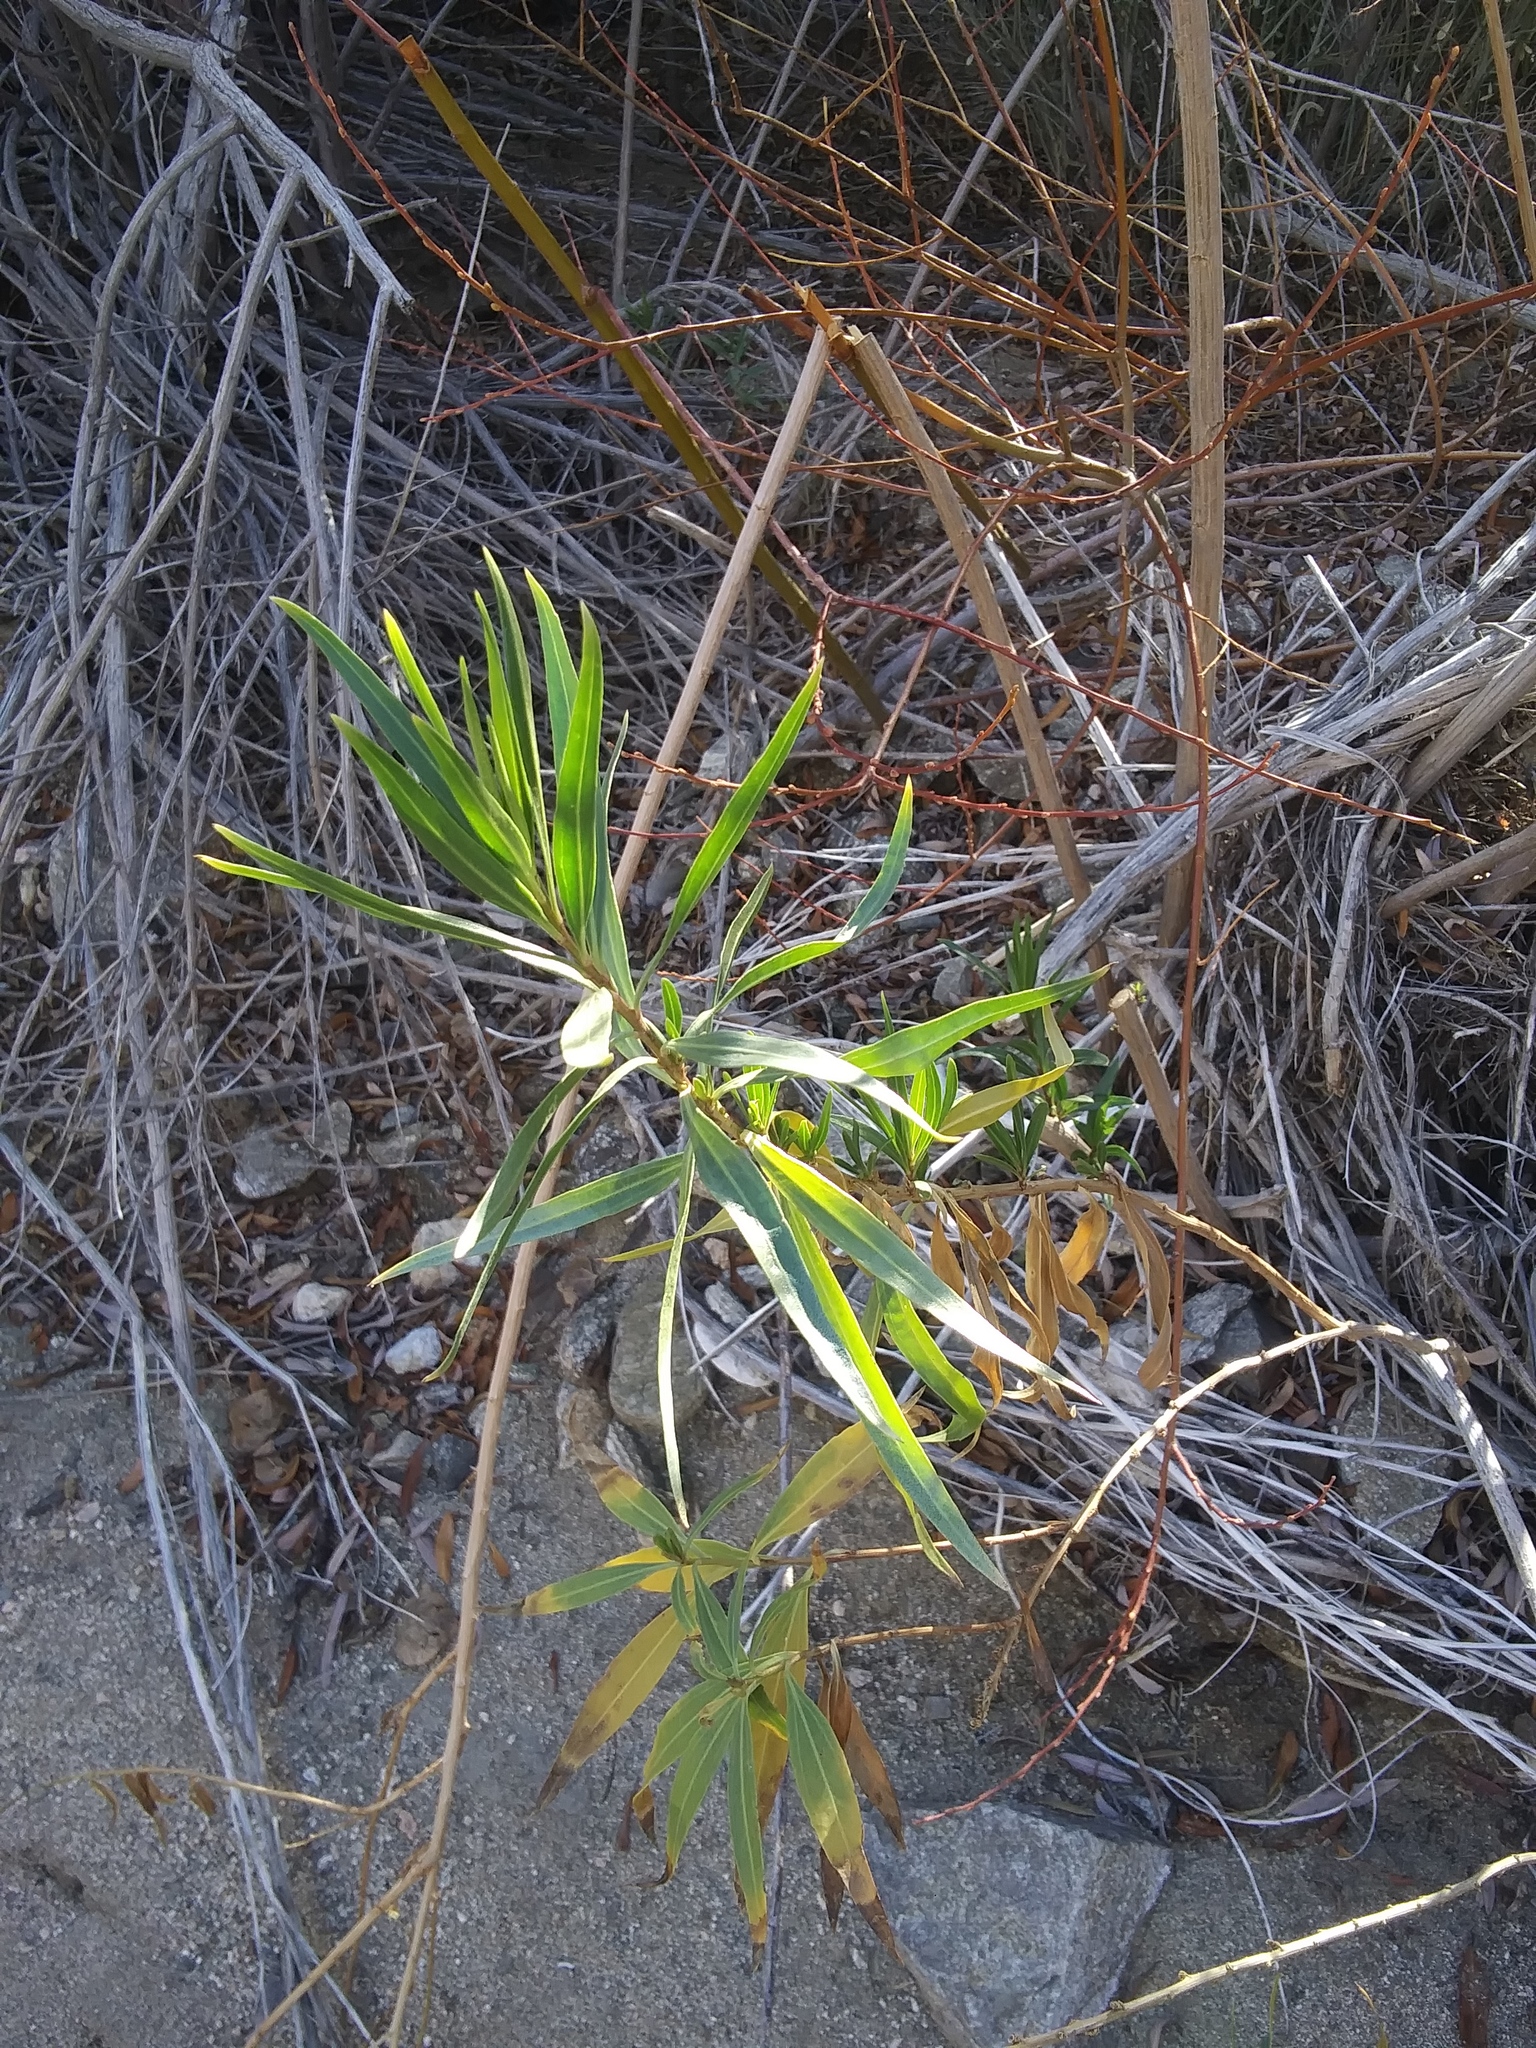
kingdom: Plantae
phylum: Tracheophyta
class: Magnoliopsida
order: Asterales
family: Asteraceae
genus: Baccharis
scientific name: Baccharis salicifolia
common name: Sticky baccharis
